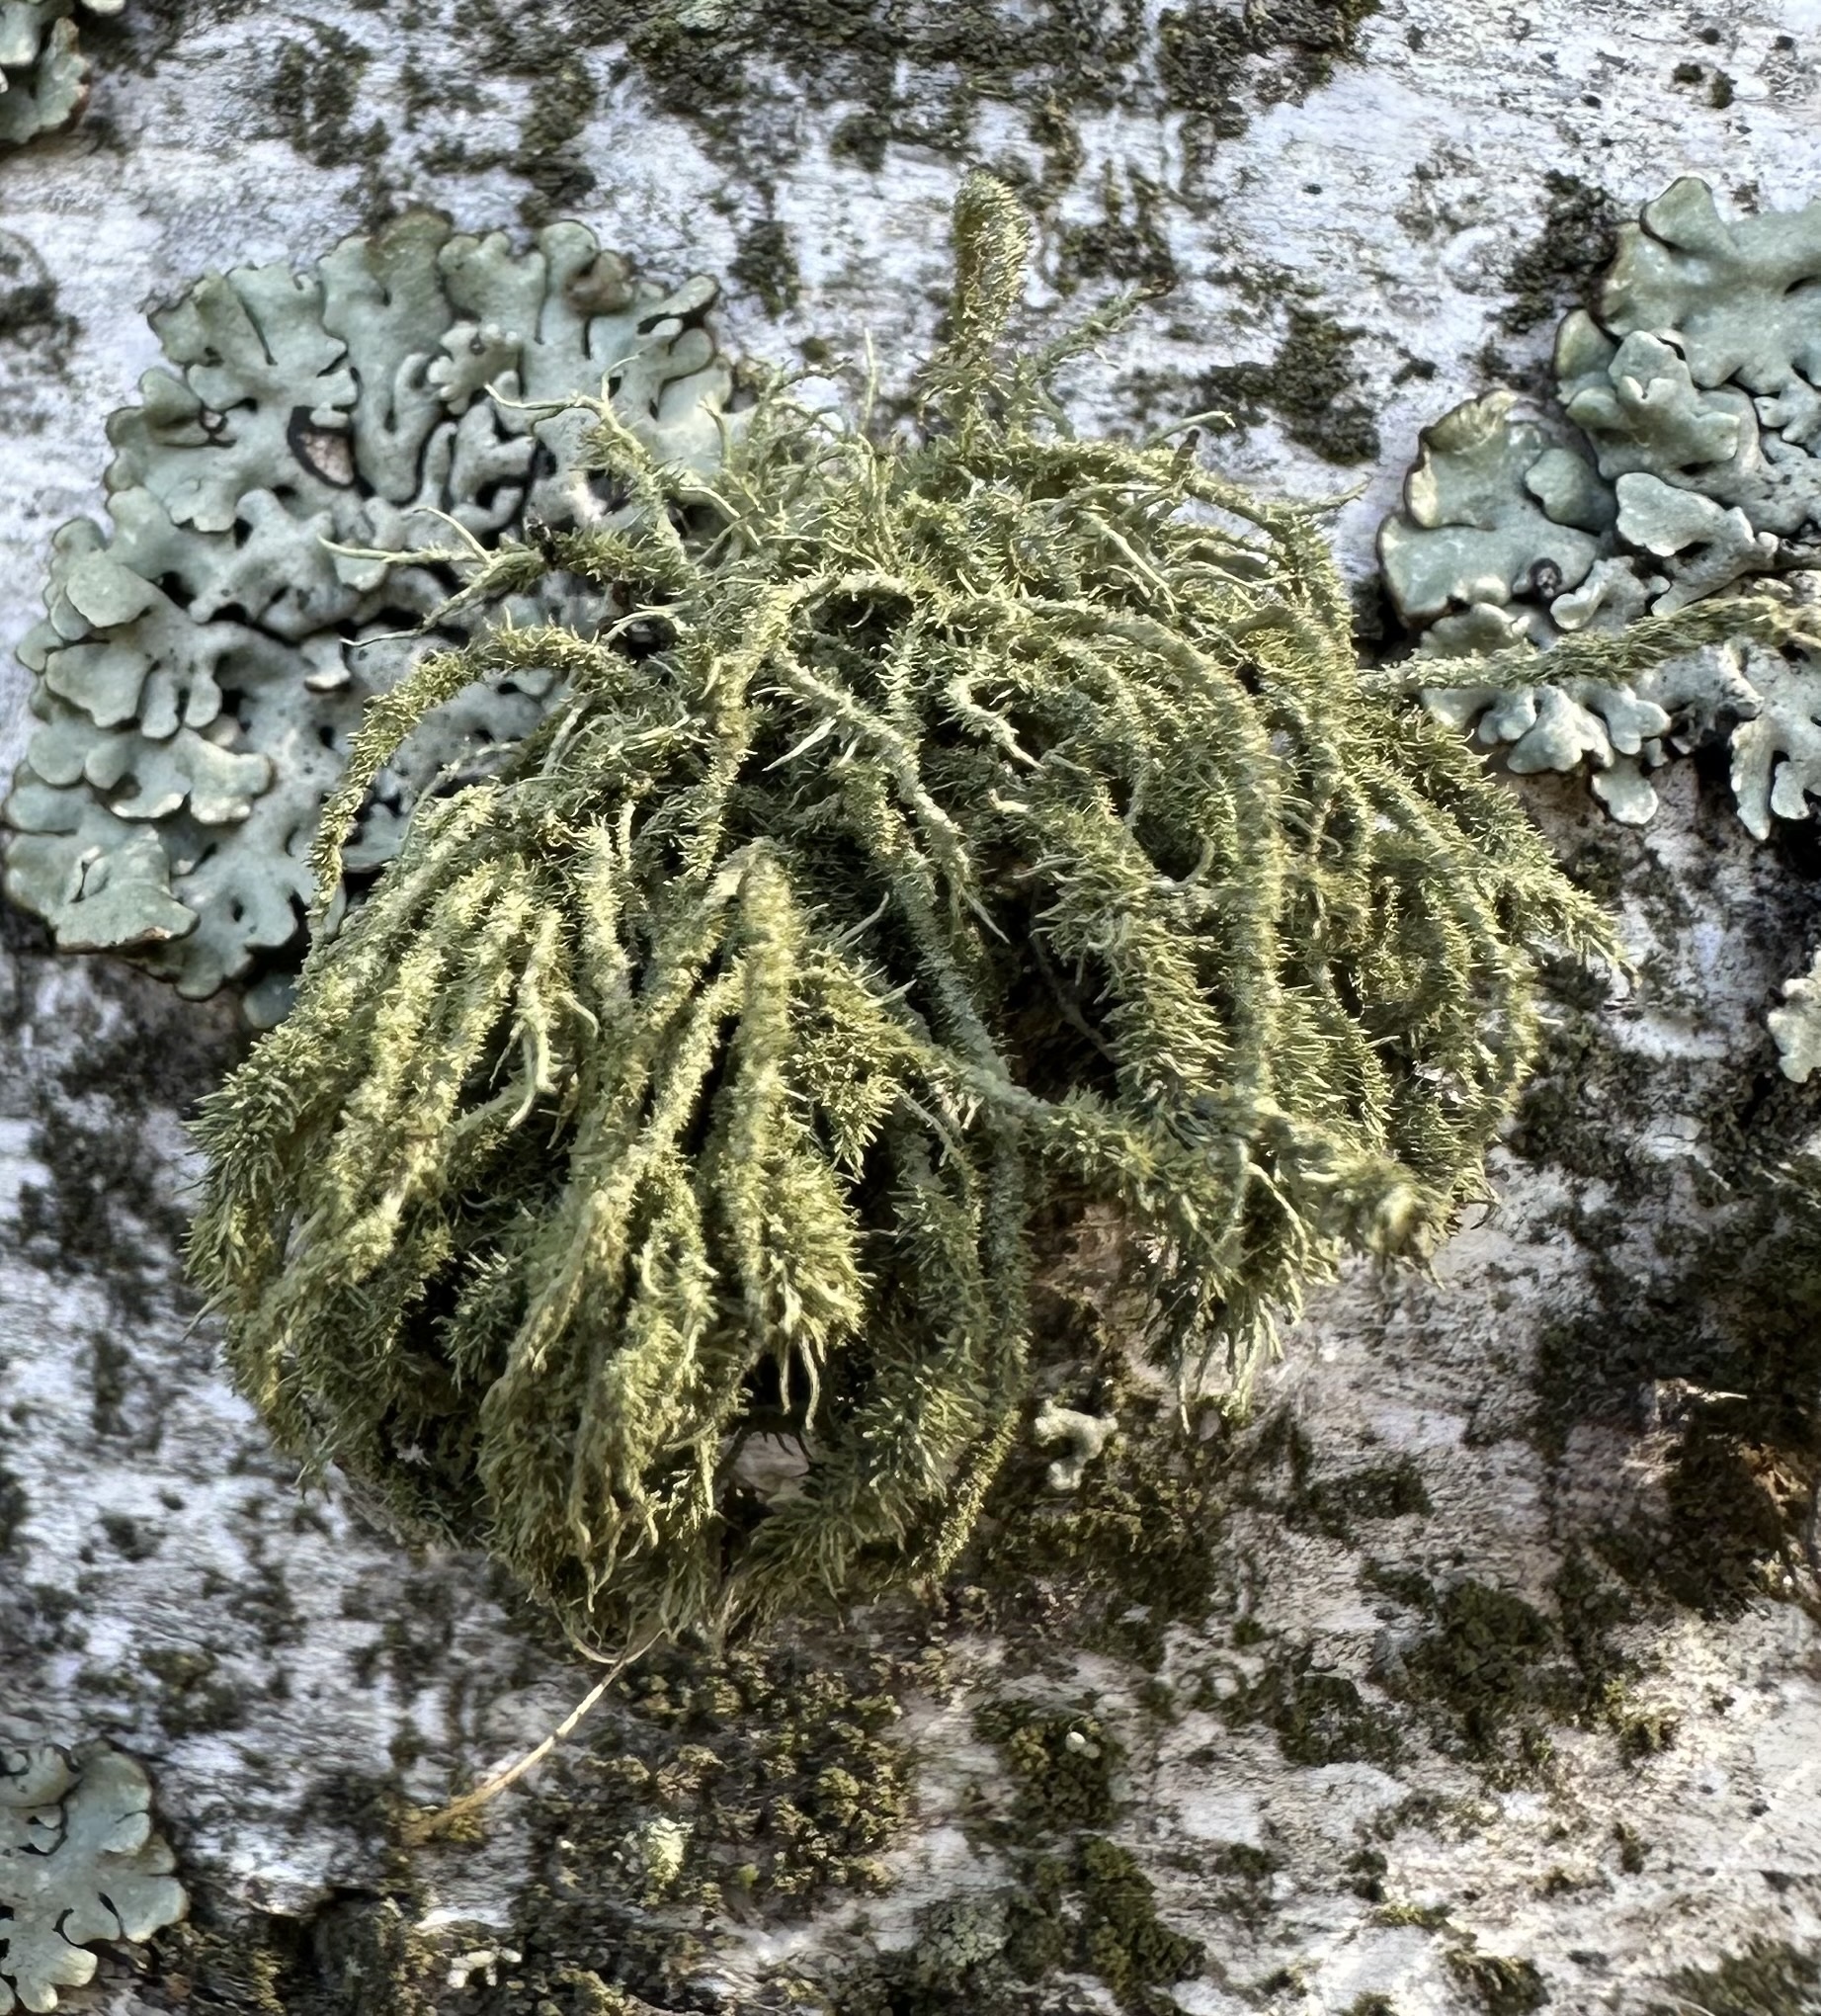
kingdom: Fungi
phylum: Ascomycota
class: Lecanoromycetes
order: Lecanorales
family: Parmeliaceae
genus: Usnea
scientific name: Usnea hirta
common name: Bristly beard lichen
